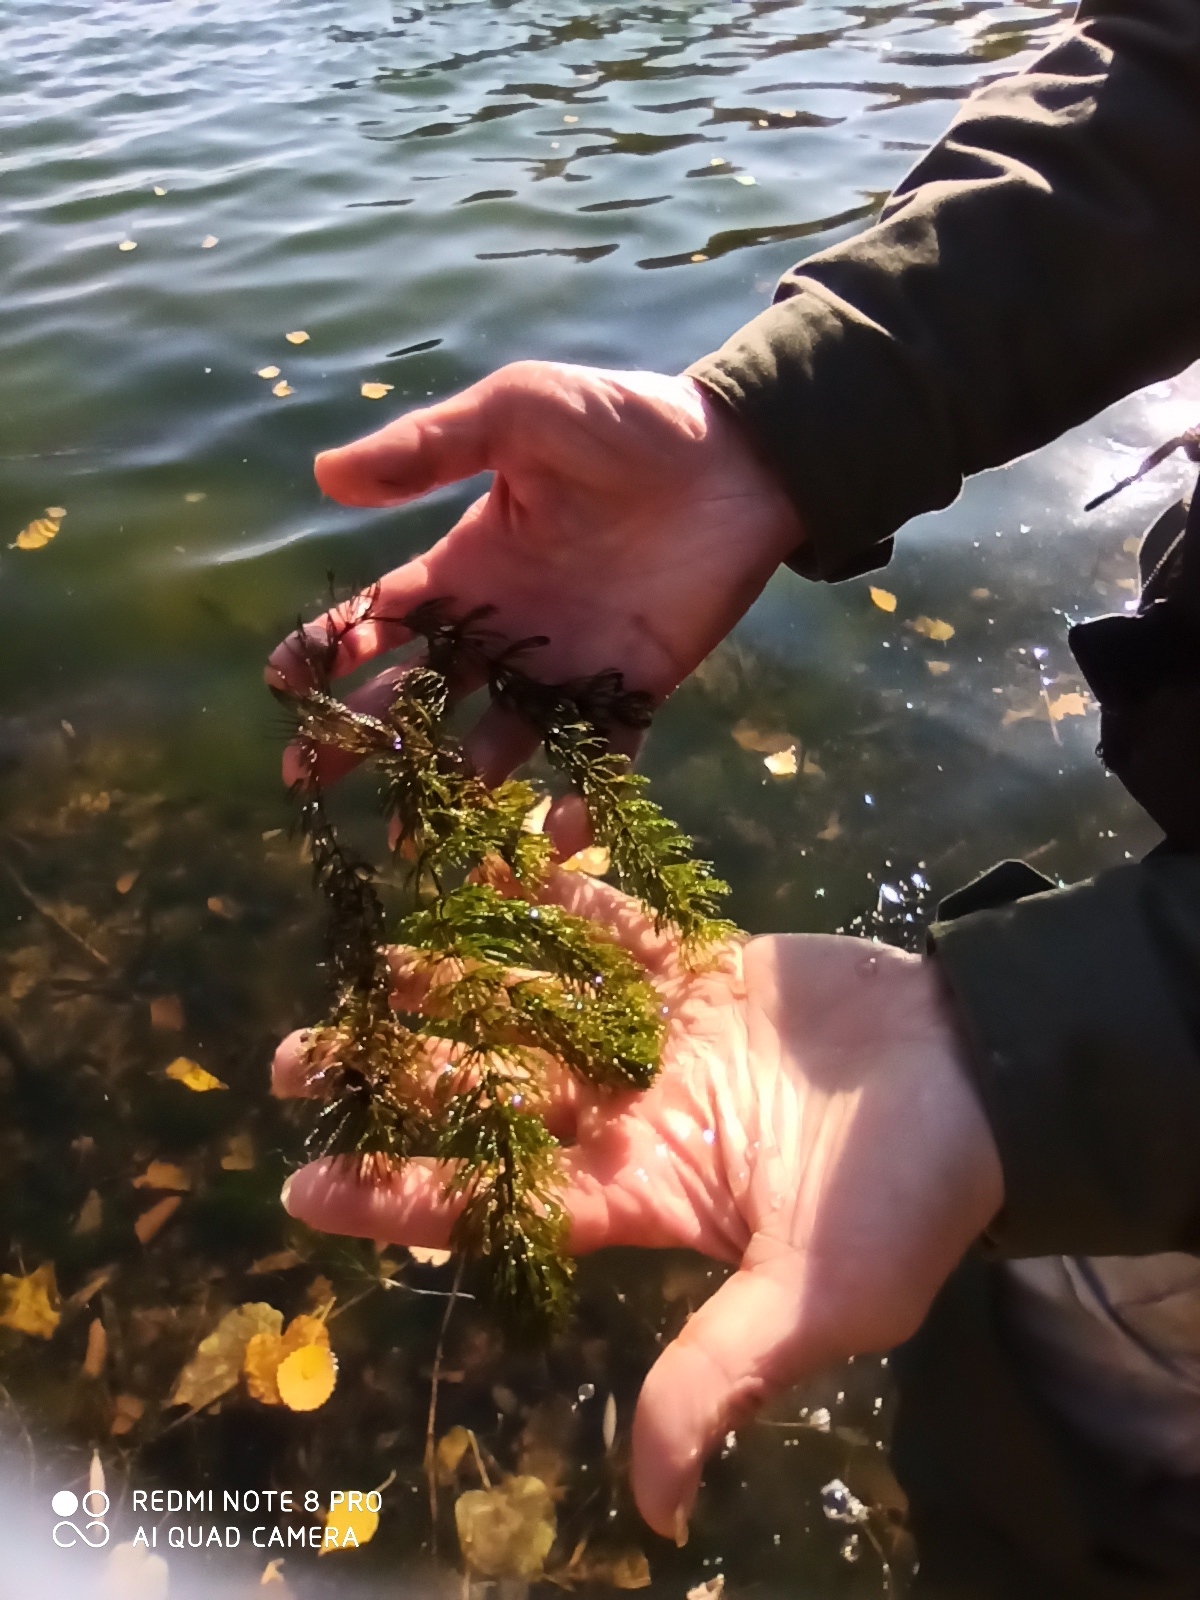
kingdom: Plantae
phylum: Tracheophyta
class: Magnoliopsida
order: Ceratophyllales
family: Ceratophyllaceae
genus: Ceratophyllum
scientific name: Ceratophyllum demersum
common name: Rigid hornwort
